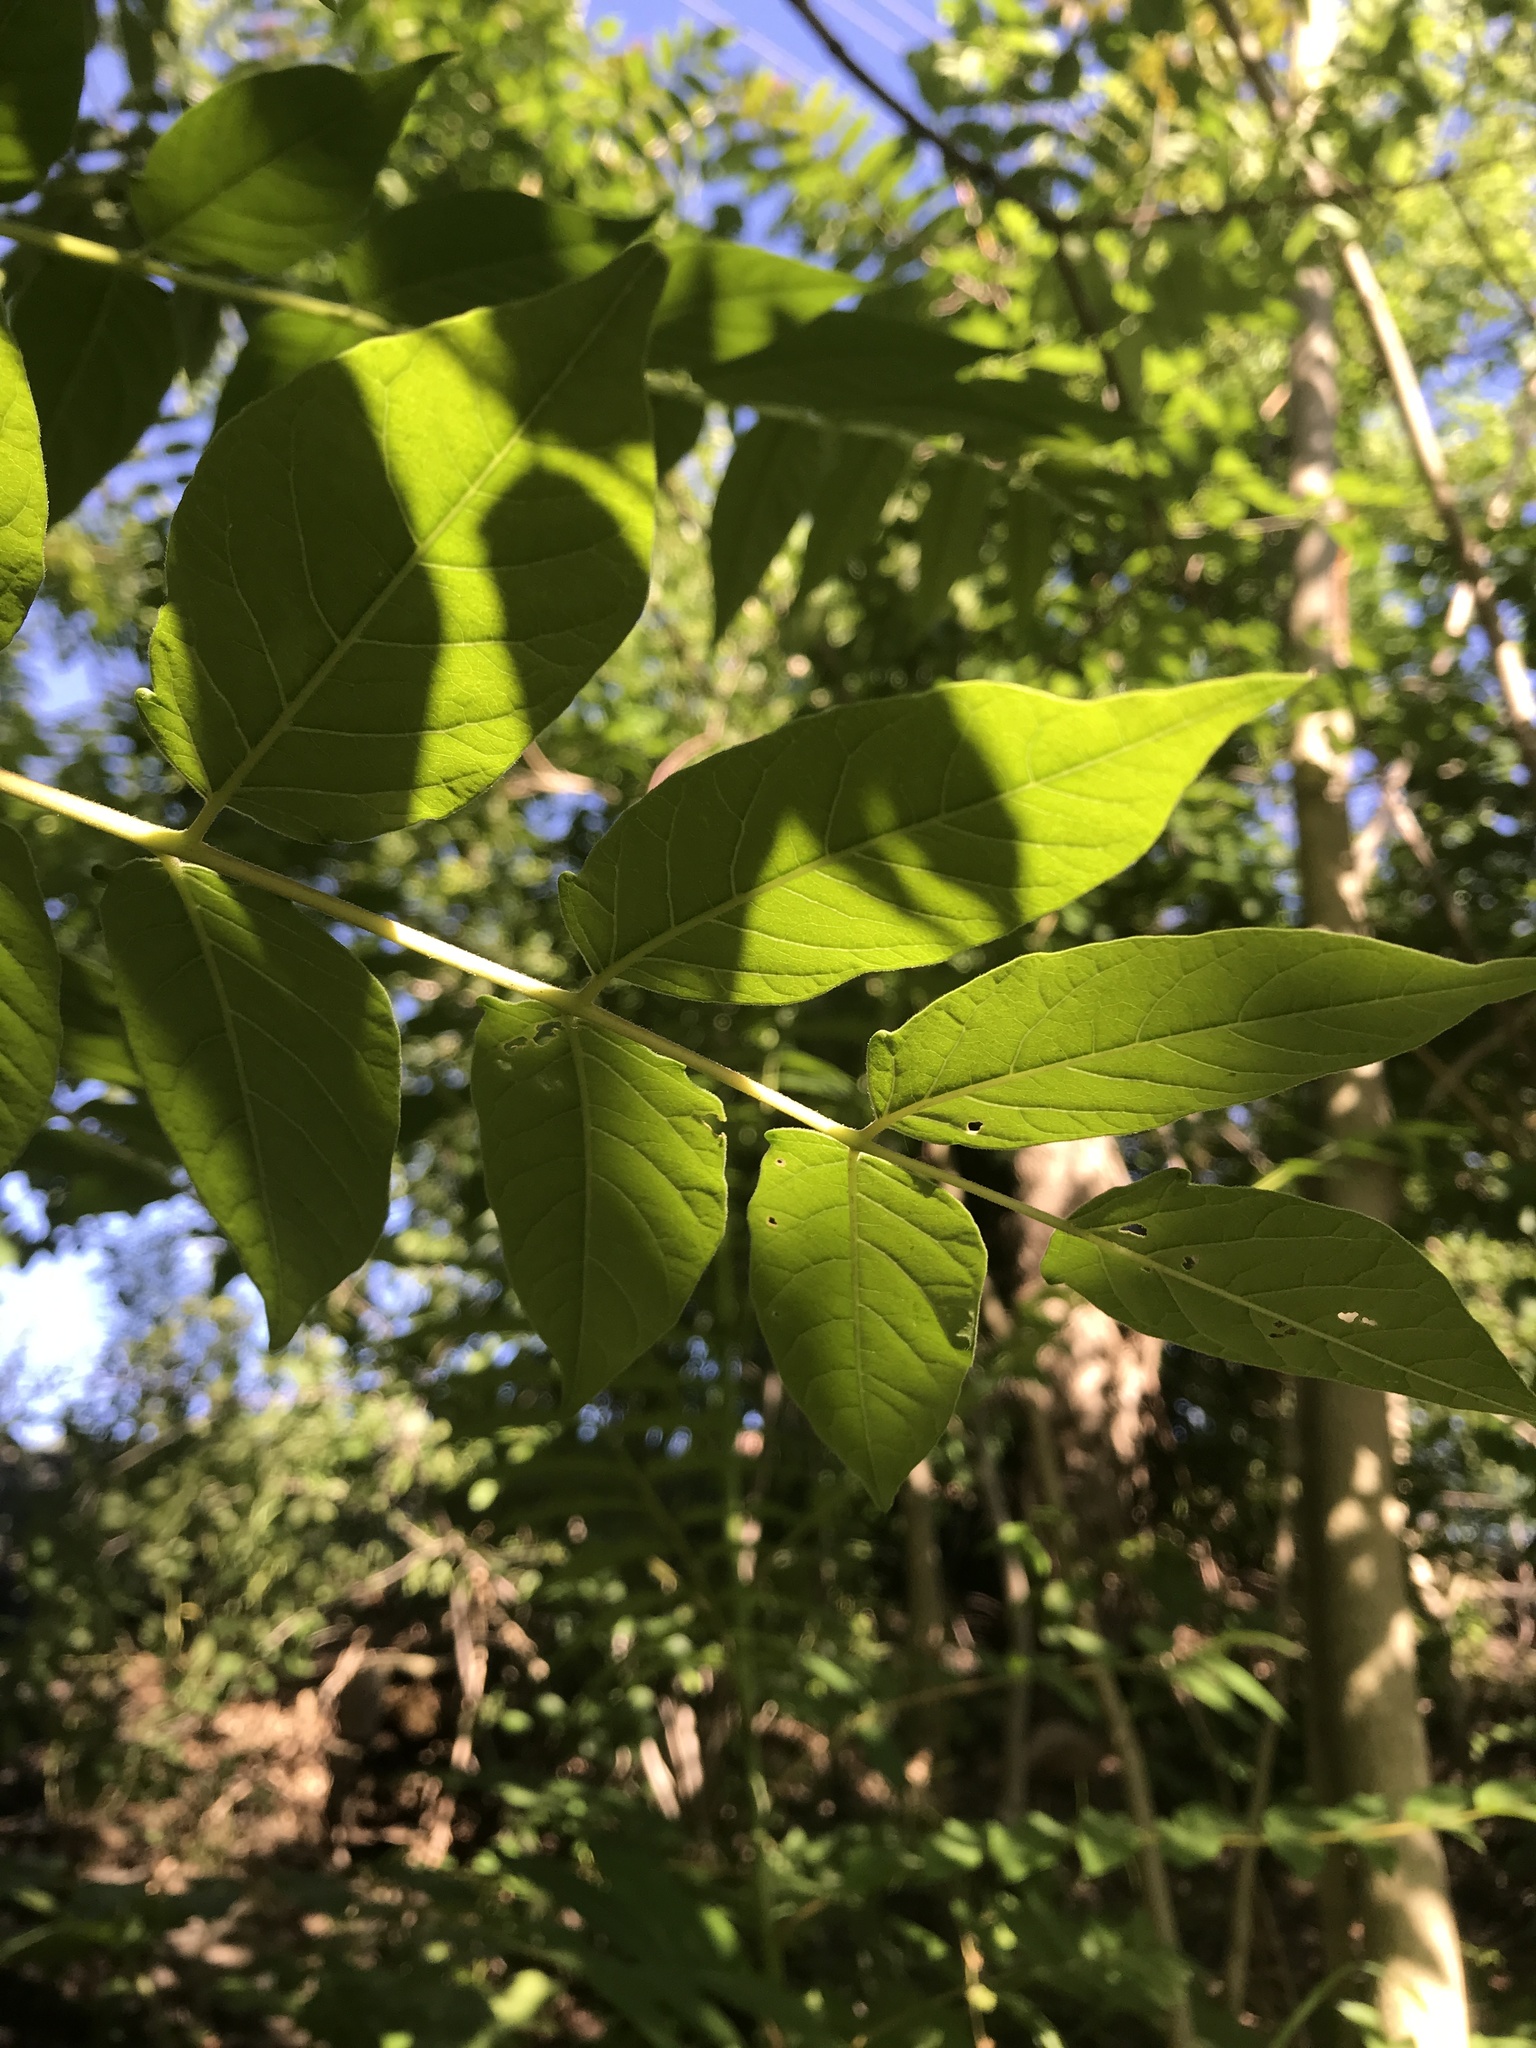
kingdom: Plantae
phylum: Tracheophyta
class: Magnoliopsida
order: Sapindales
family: Simaroubaceae
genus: Ailanthus
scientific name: Ailanthus altissima
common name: Tree-of-heaven
